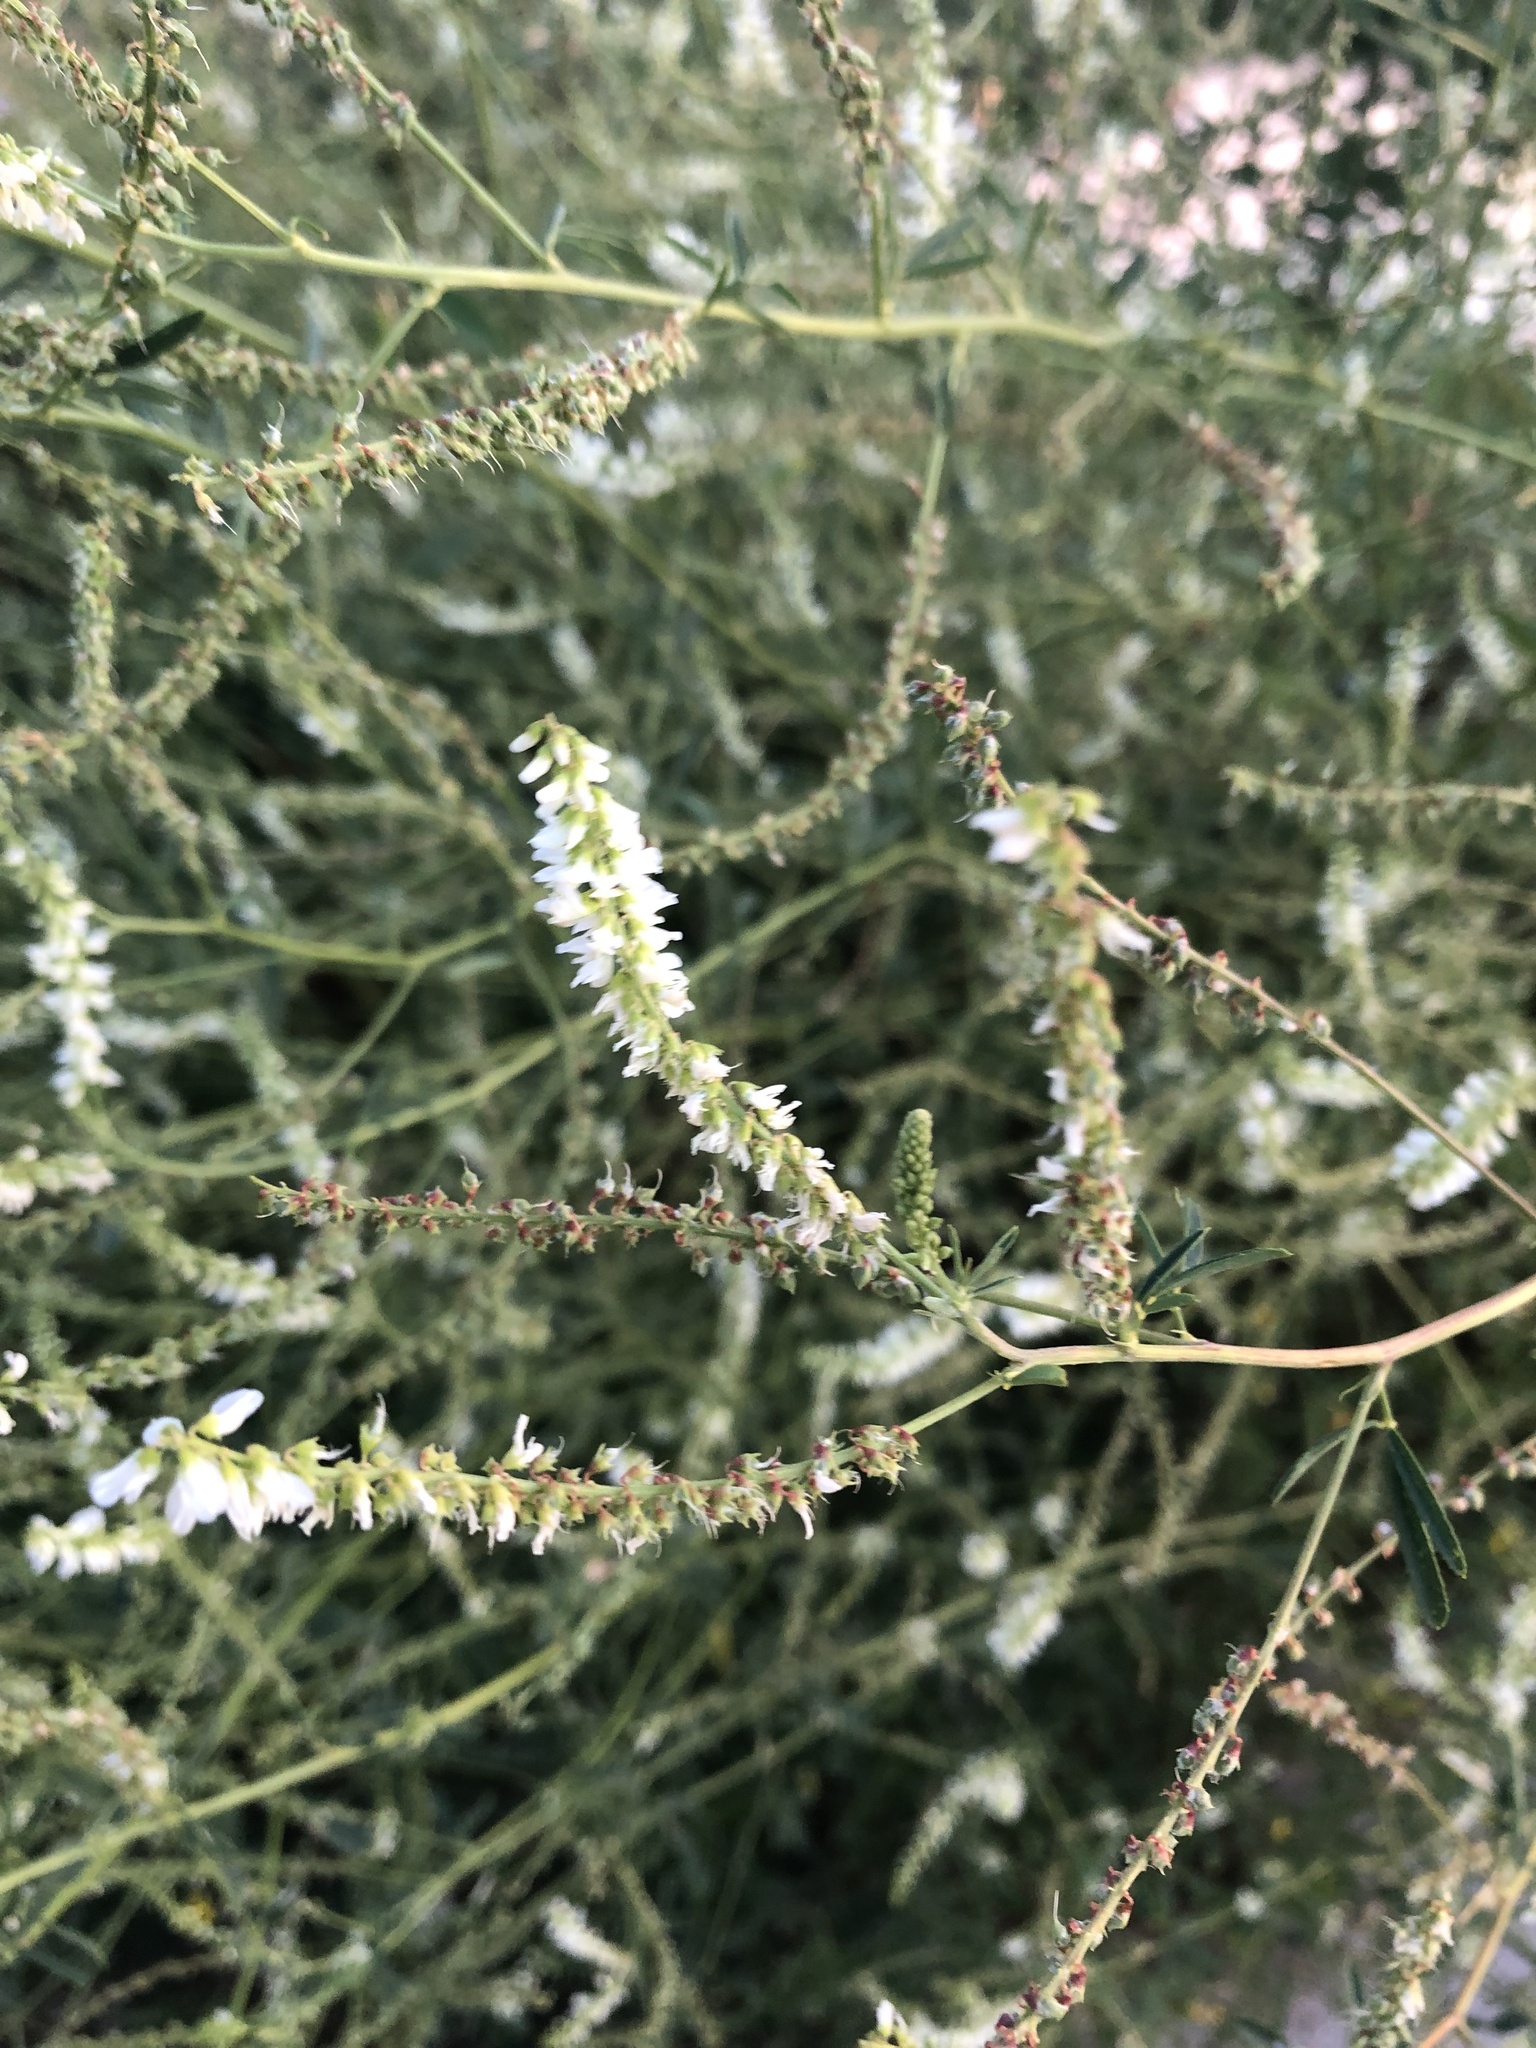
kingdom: Plantae
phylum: Tracheophyta
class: Magnoliopsida
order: Fabales
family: Fabaceae
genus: Melilotus
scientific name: Melilotus albus
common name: White melilot
